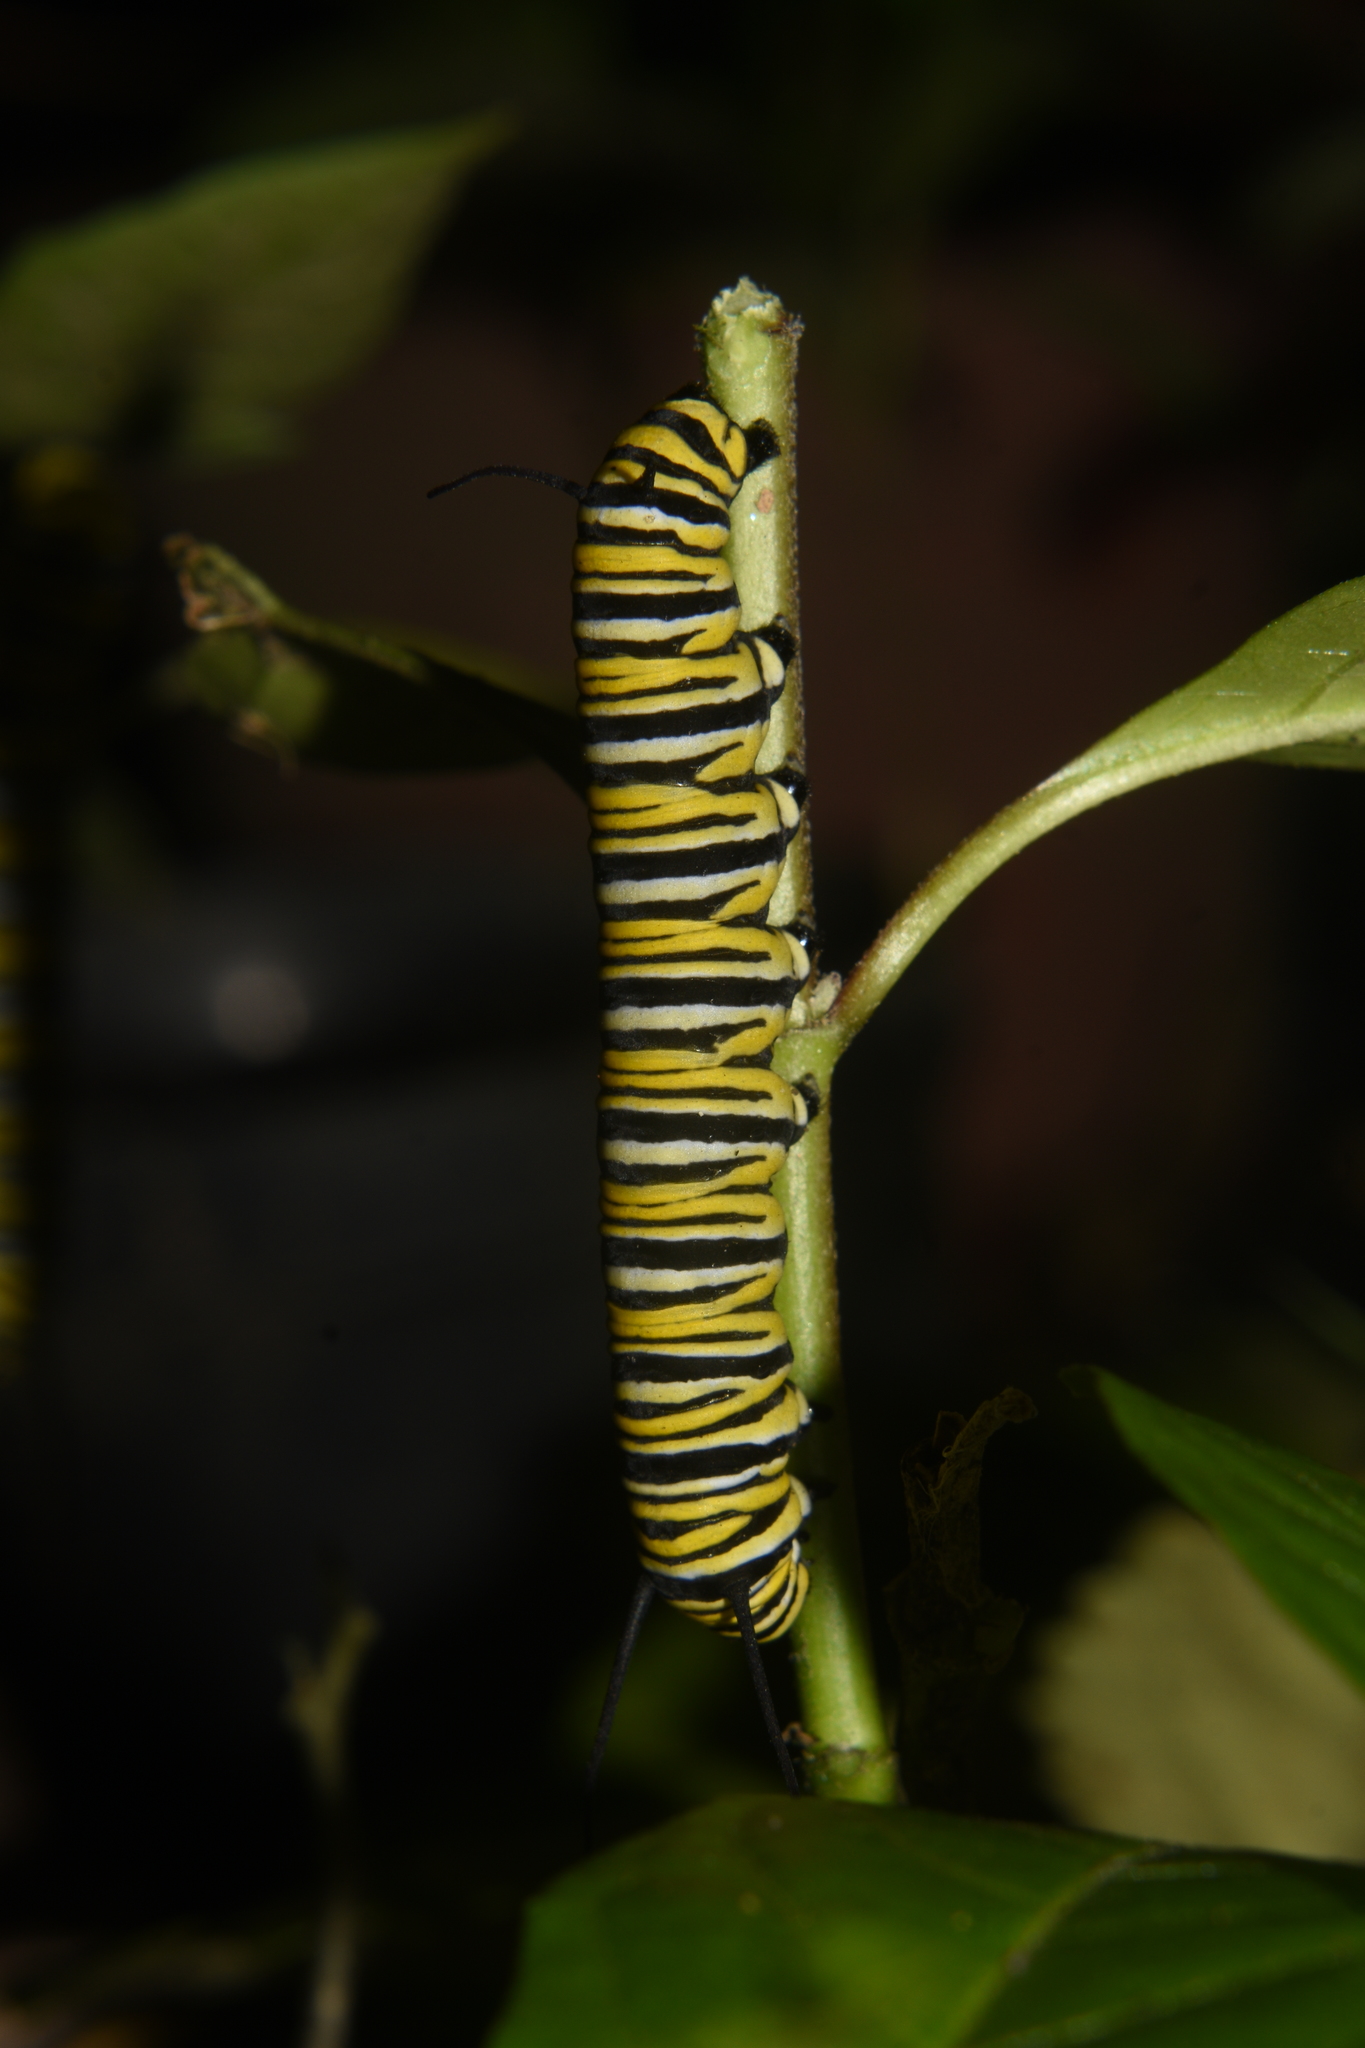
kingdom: Animalia
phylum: Arthropoda
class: Insecta
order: Lepidoptera
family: Nymphalidae
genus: Danaus
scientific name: Danaus plexippus
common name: Monarch
